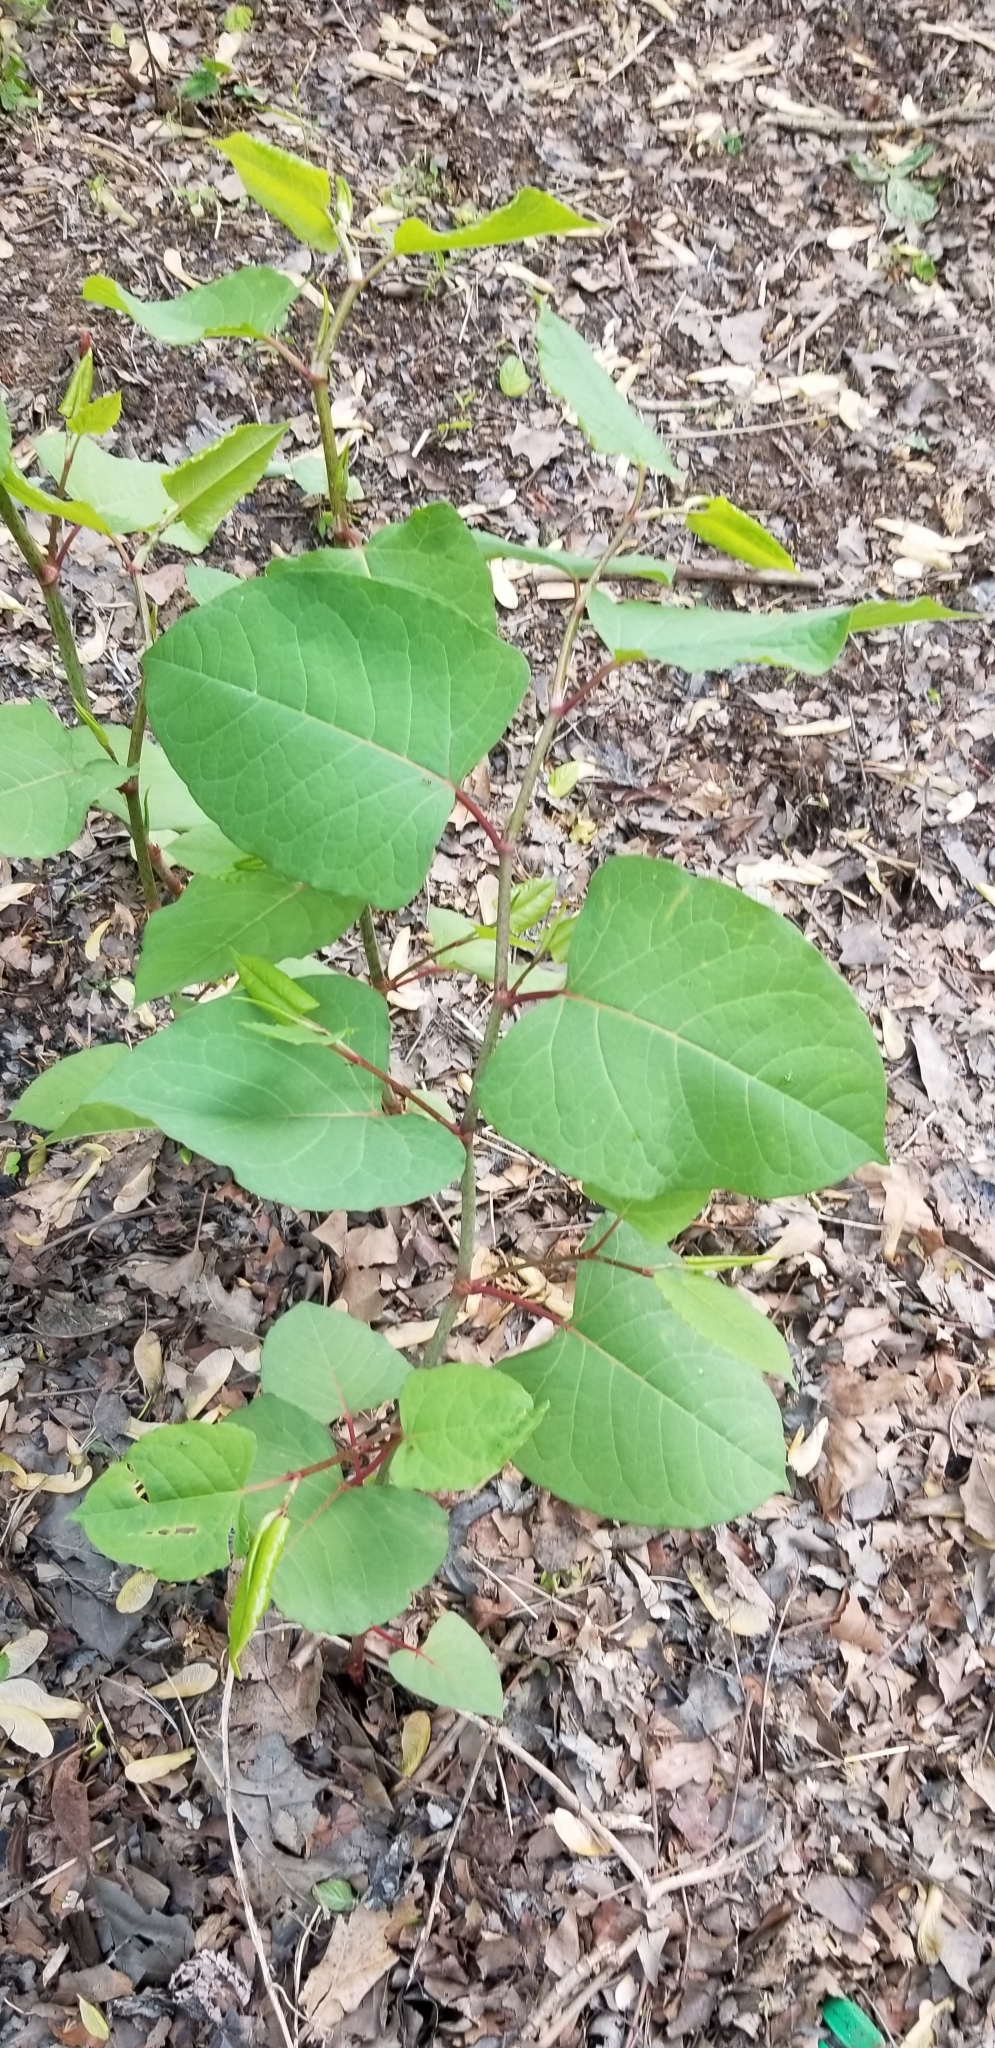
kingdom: Plantae
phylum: Tracheophyta
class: Magnoliopsida
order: Caryophyllales
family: Polygonaceae
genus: Reynoutria
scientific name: Reynoutria japonica
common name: Japanese knotweed
